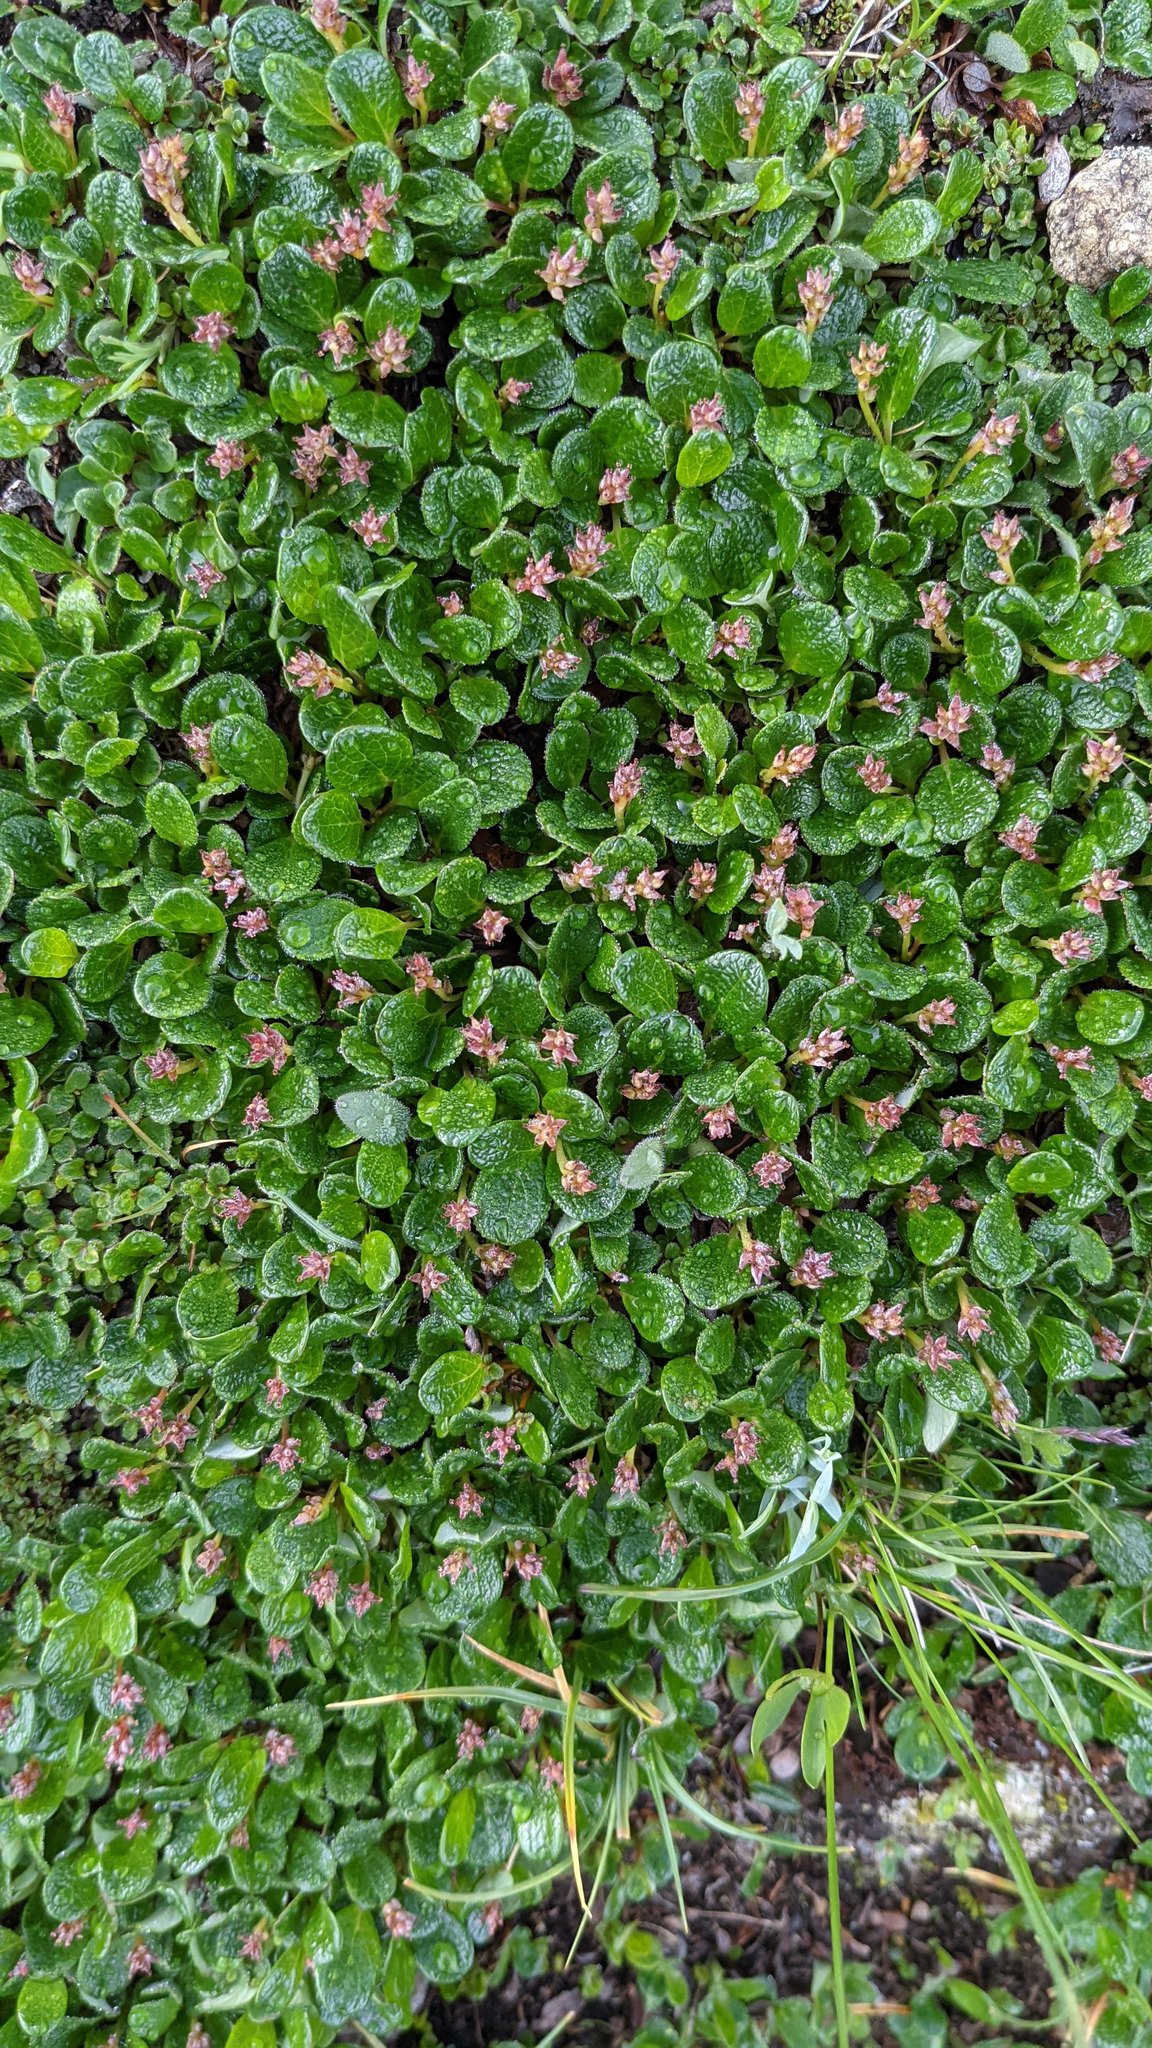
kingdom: Plantae
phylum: Tracheophyta
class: Magnoliopsida
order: Malpighiales
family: Salicaceae
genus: Salix
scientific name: Salix nivalis
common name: Dwarf snow willow
